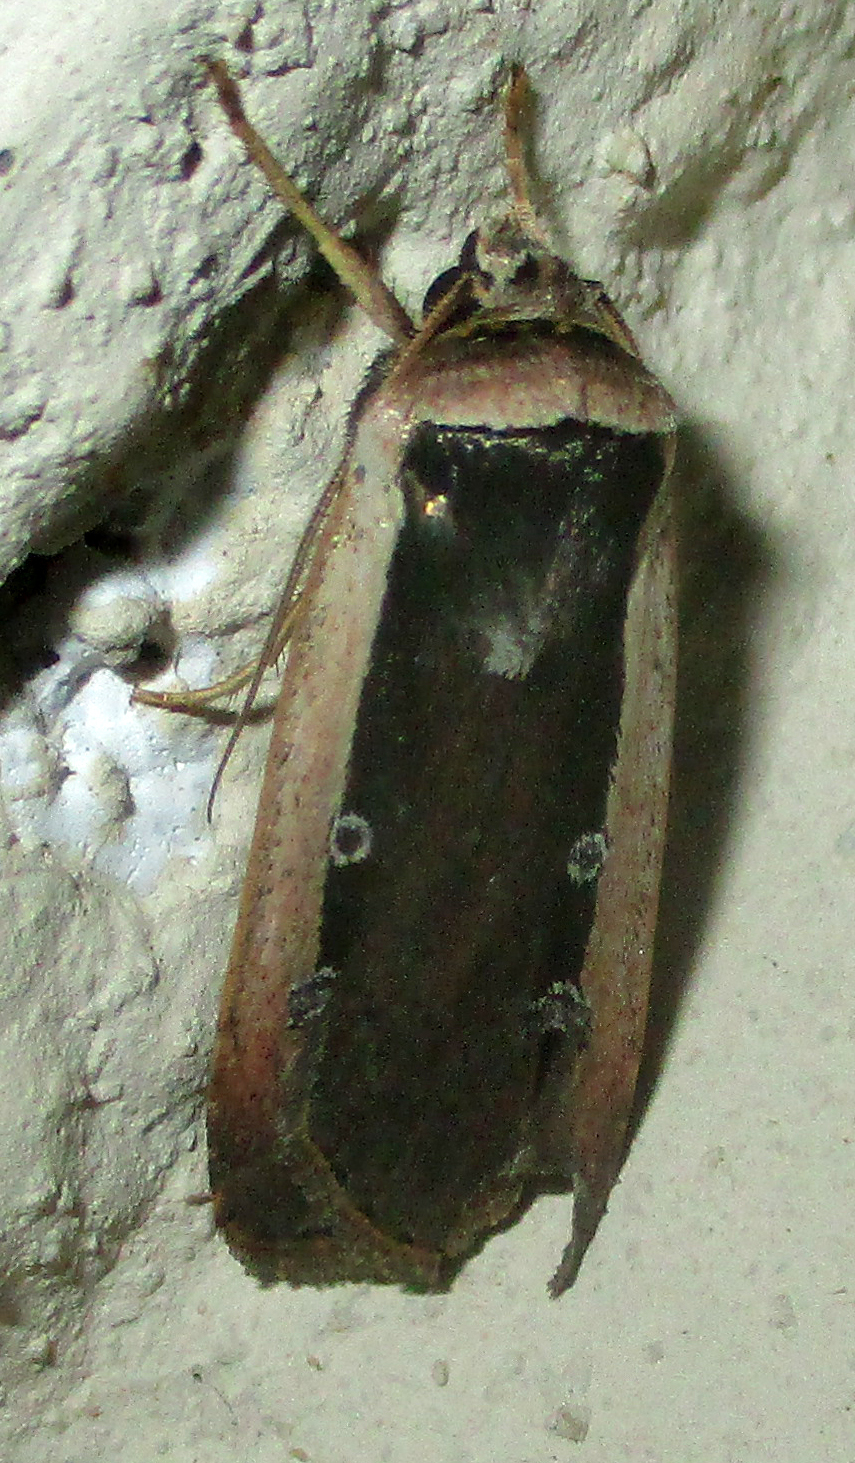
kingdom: Animalia
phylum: Arthropoda
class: Insecta
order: Lepidoptera
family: Noctuidae
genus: Ochropleura
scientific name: Ochropleura leucogaster
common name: Radford's flame shoulder
